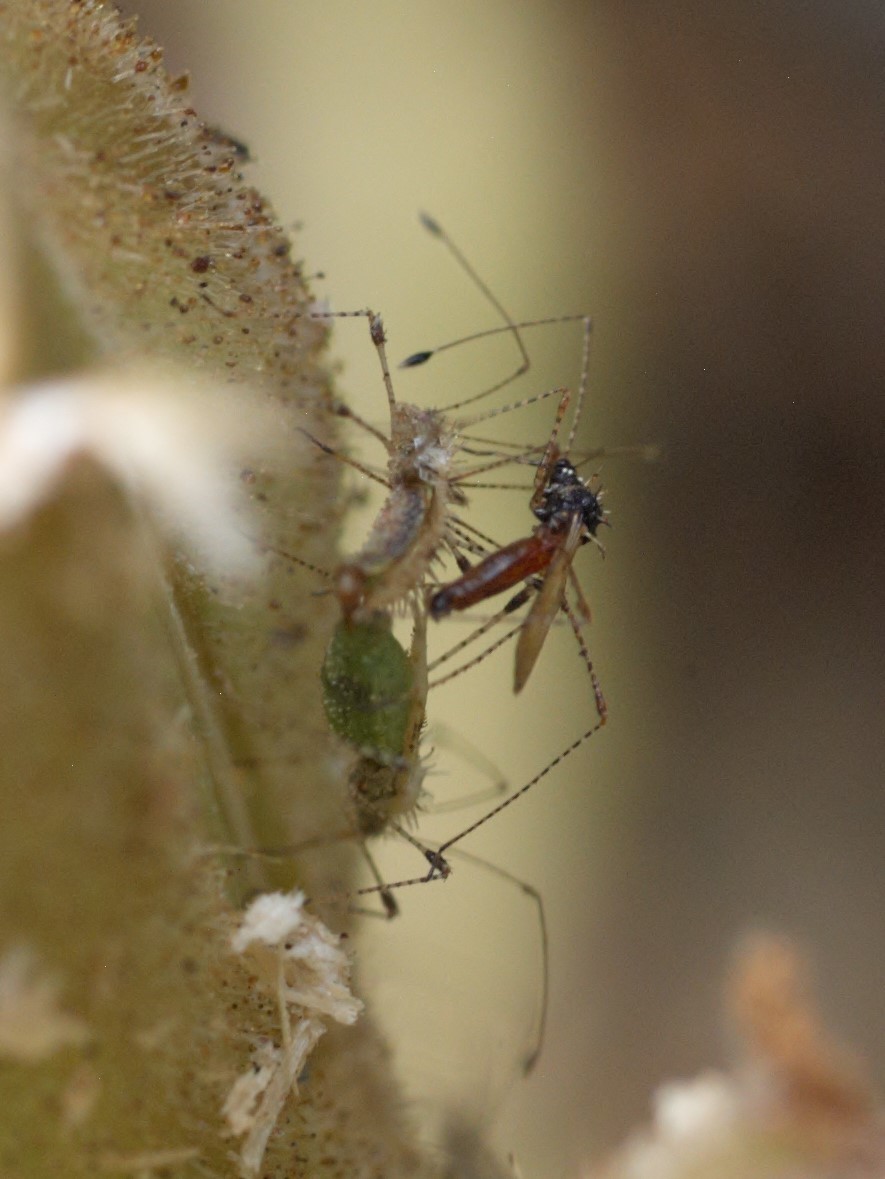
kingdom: Animalia
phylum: Arthropoda
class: Insecta
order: Hemiptera
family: Berytidae
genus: Hoplinus
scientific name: Hoplinus echinatus
